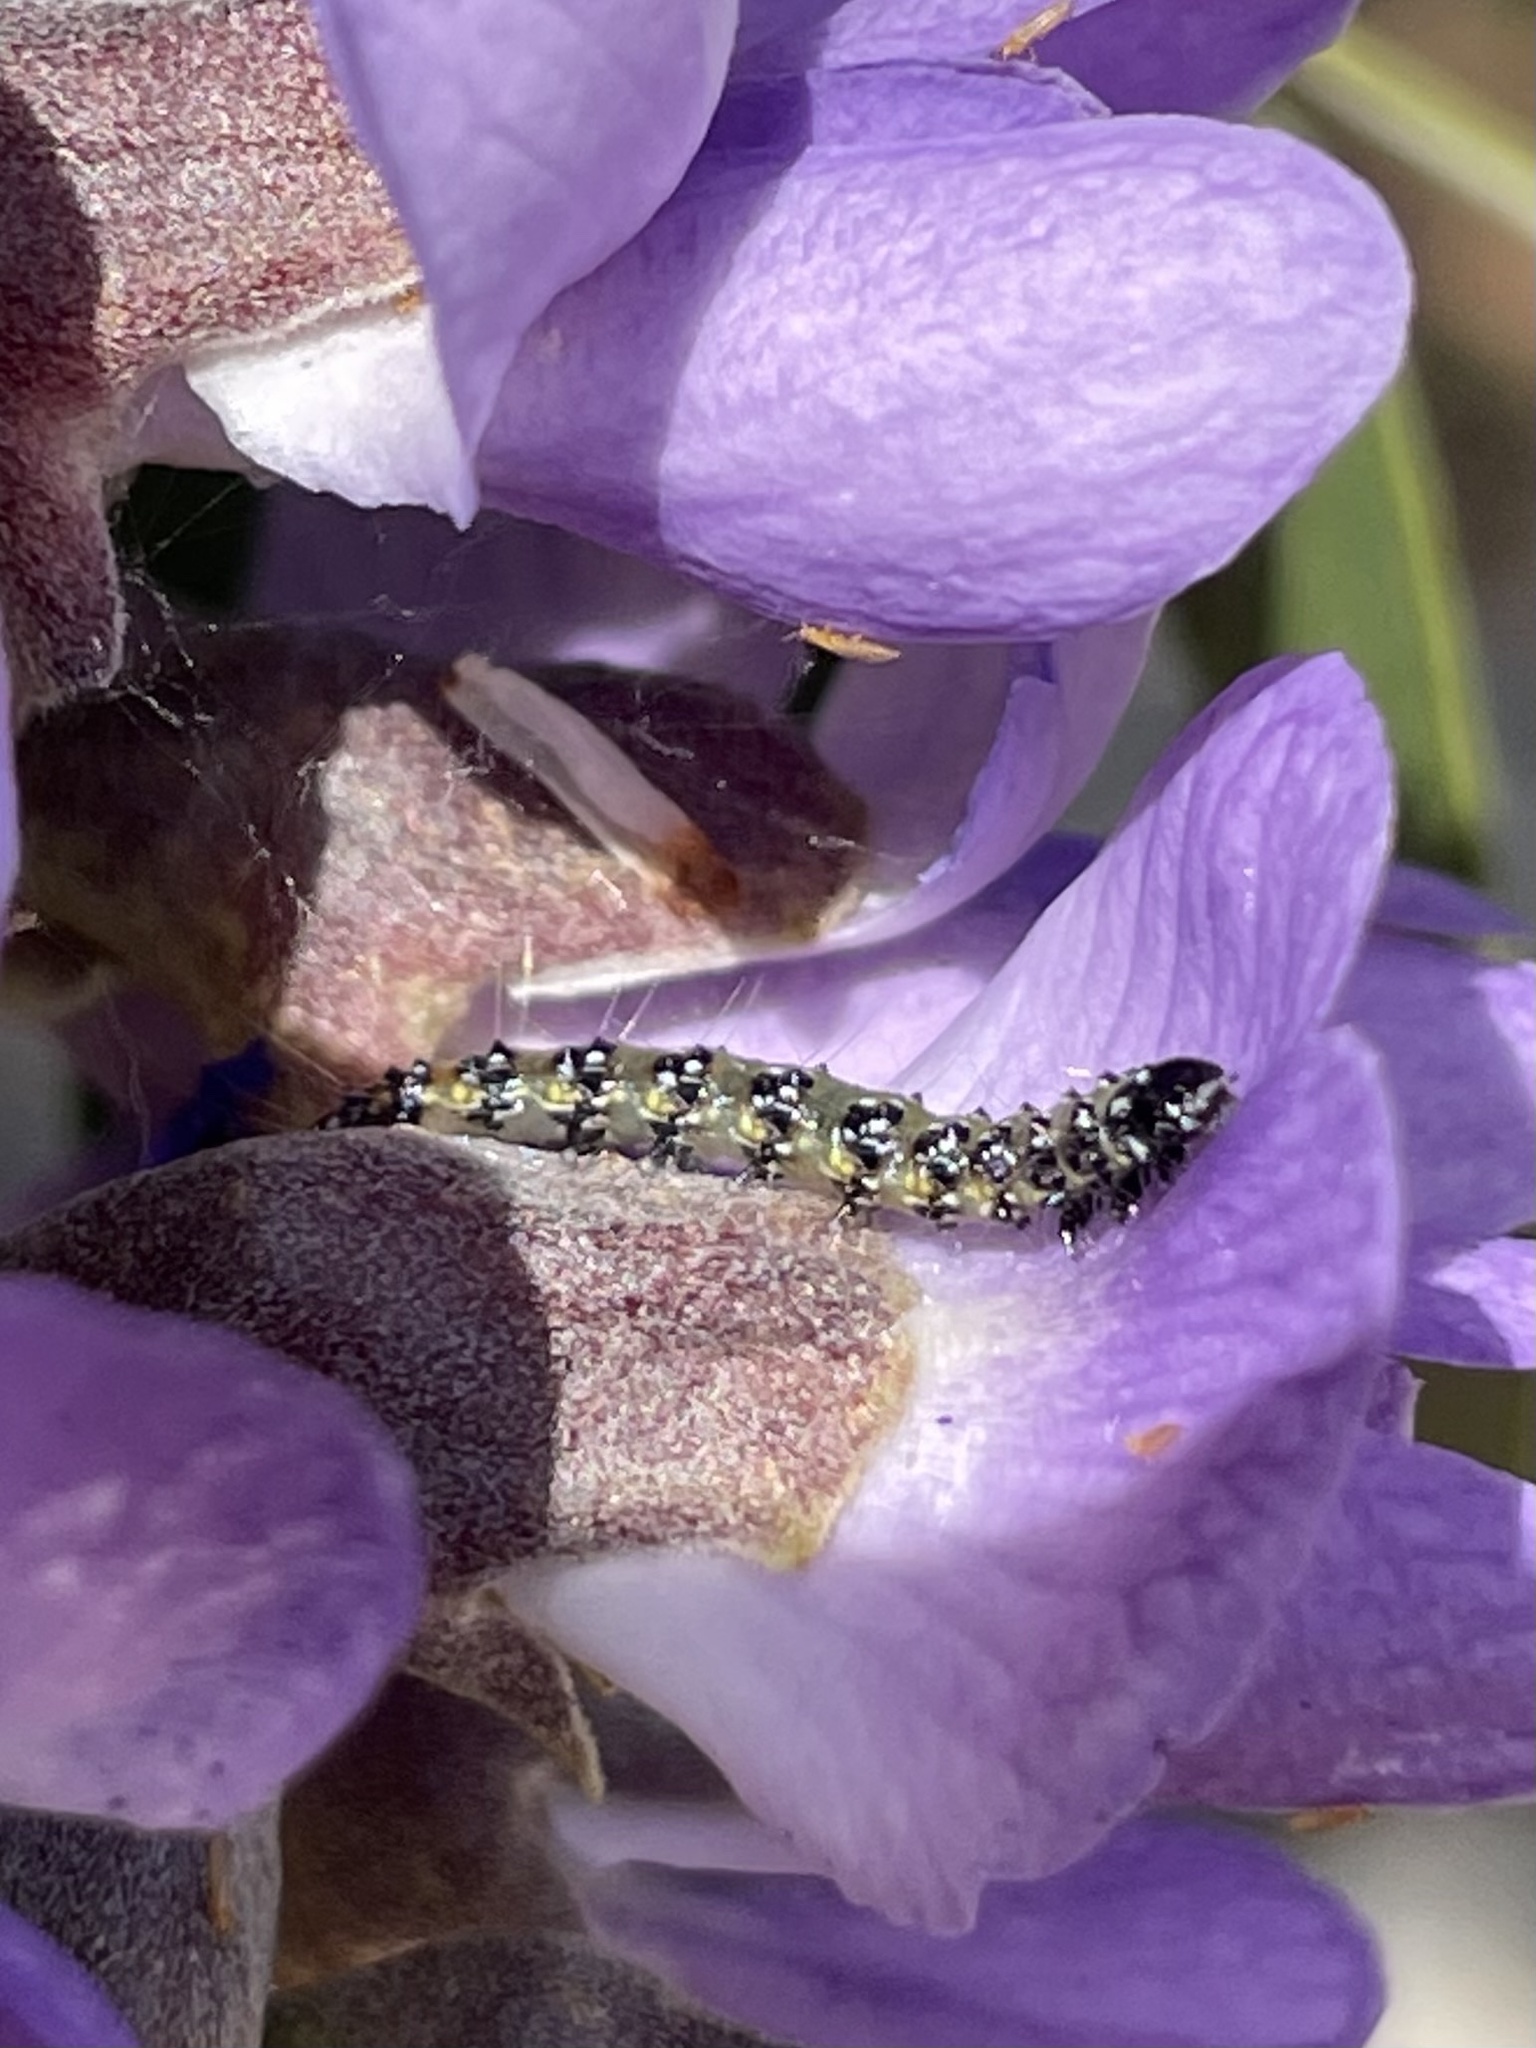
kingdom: Animalia
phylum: Arthropoda
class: Insecta
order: Lepidoptera
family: Crambidae
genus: Uresiphita
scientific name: Uresiphita reversalis
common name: Genista broom moth
